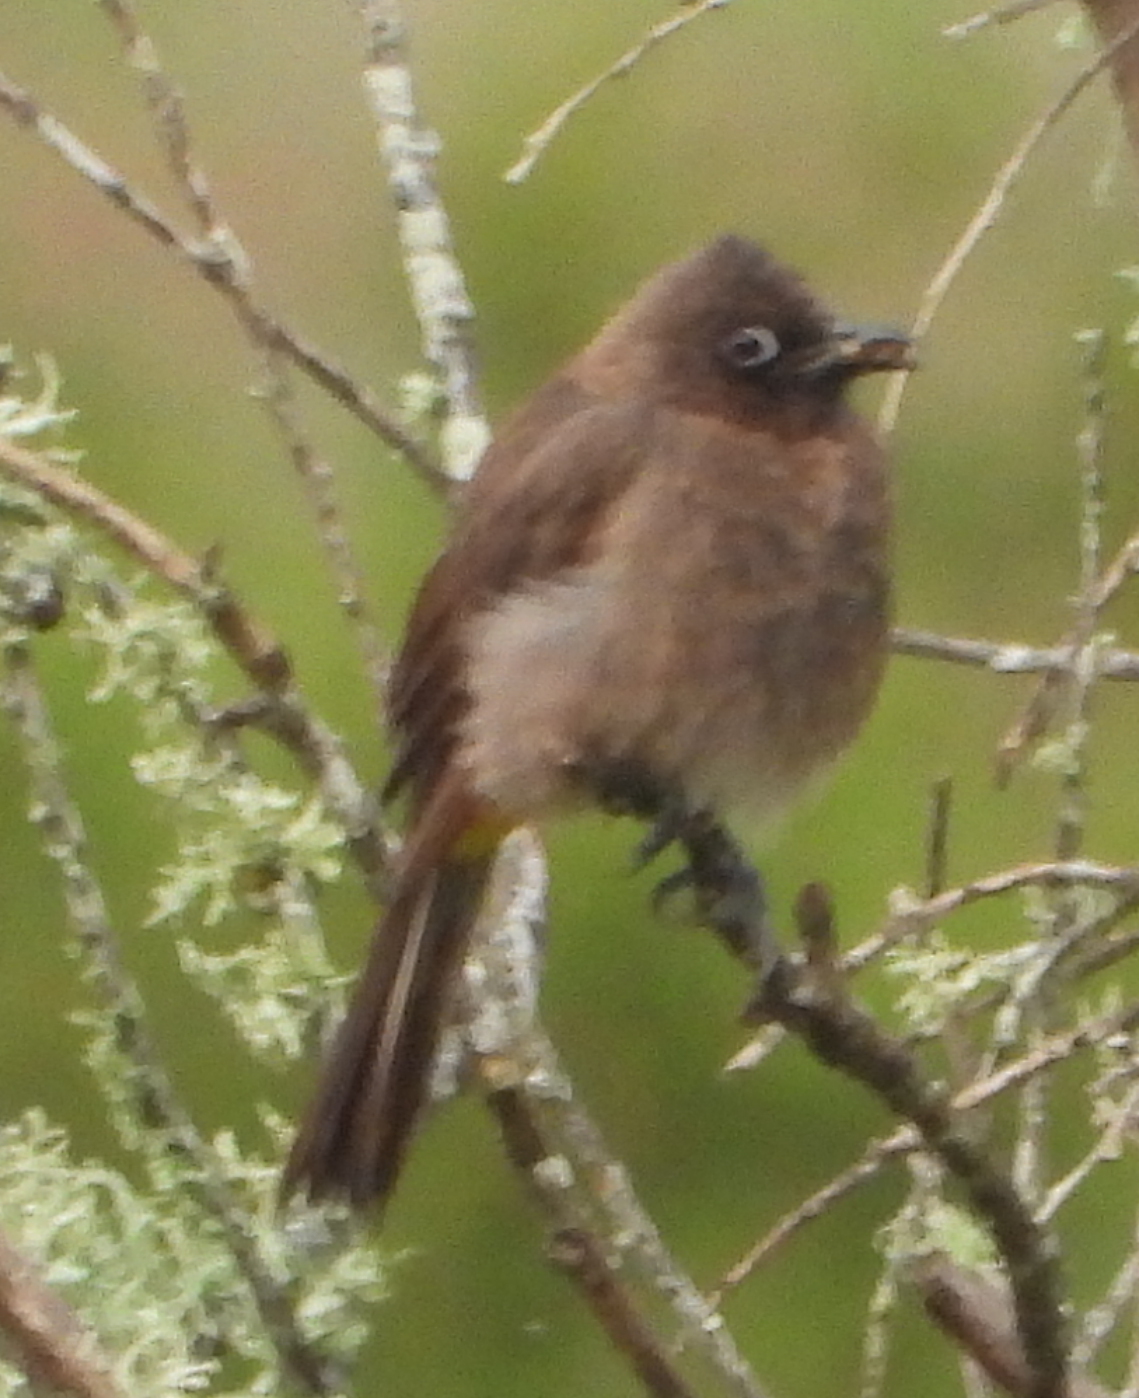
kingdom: Animalia
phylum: Chordata
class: Aves
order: Passeriformes
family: Pycnonotidae
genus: Pycnonotus
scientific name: Pycnonotus capensis
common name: Cape bulbul
